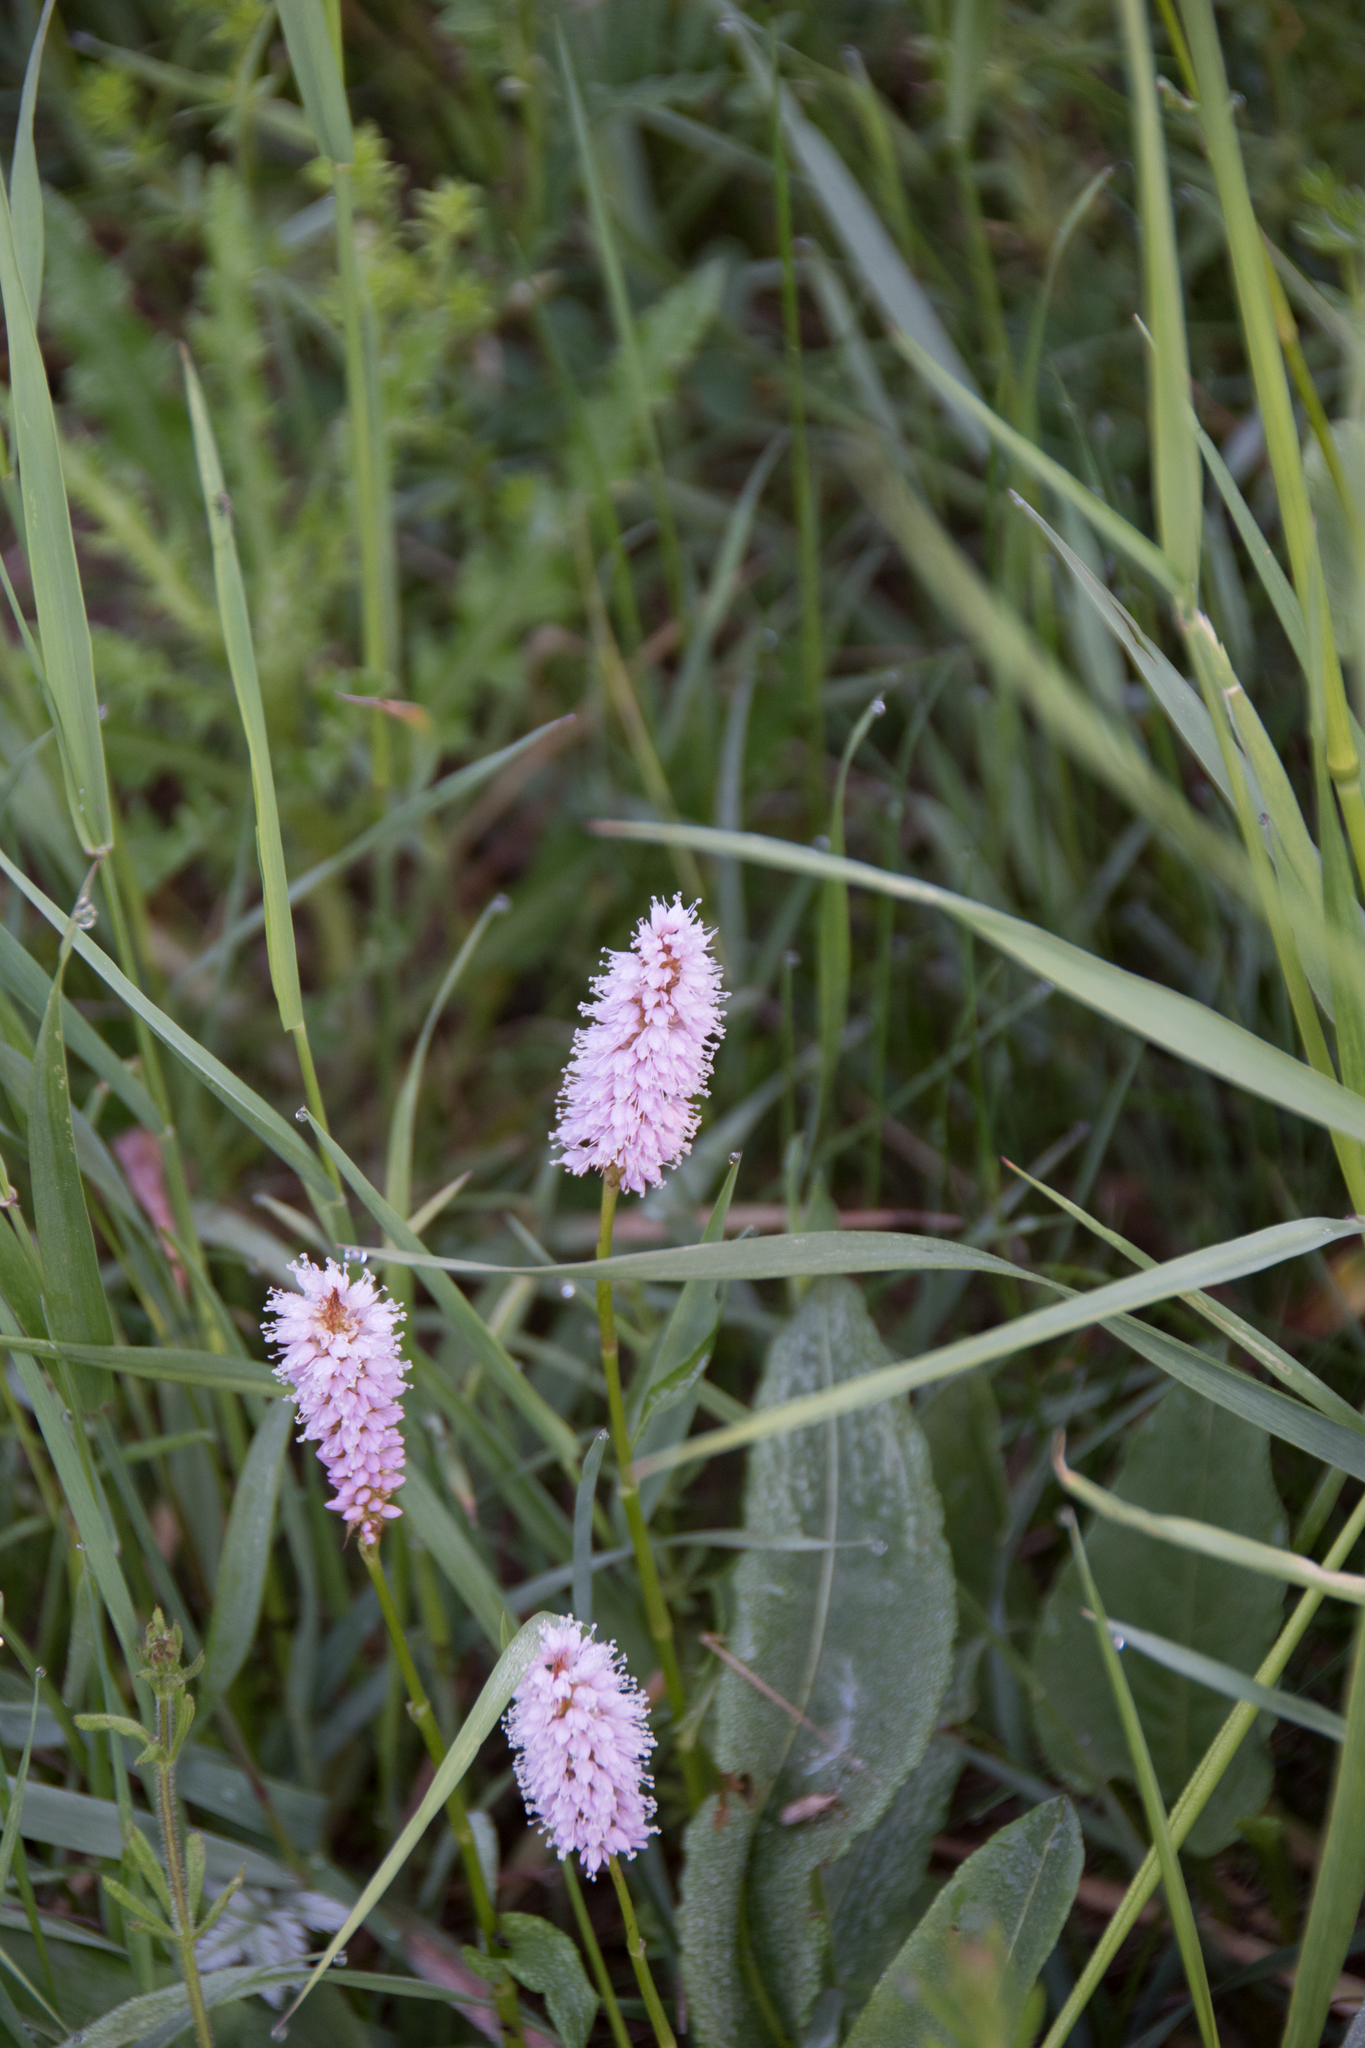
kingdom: Plantae
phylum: Tracheophyta
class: Magnoliopsida
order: Caryophyllales
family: Polygonaceae
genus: Bistorta
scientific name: Bistorta officinalis
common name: Common bistort
